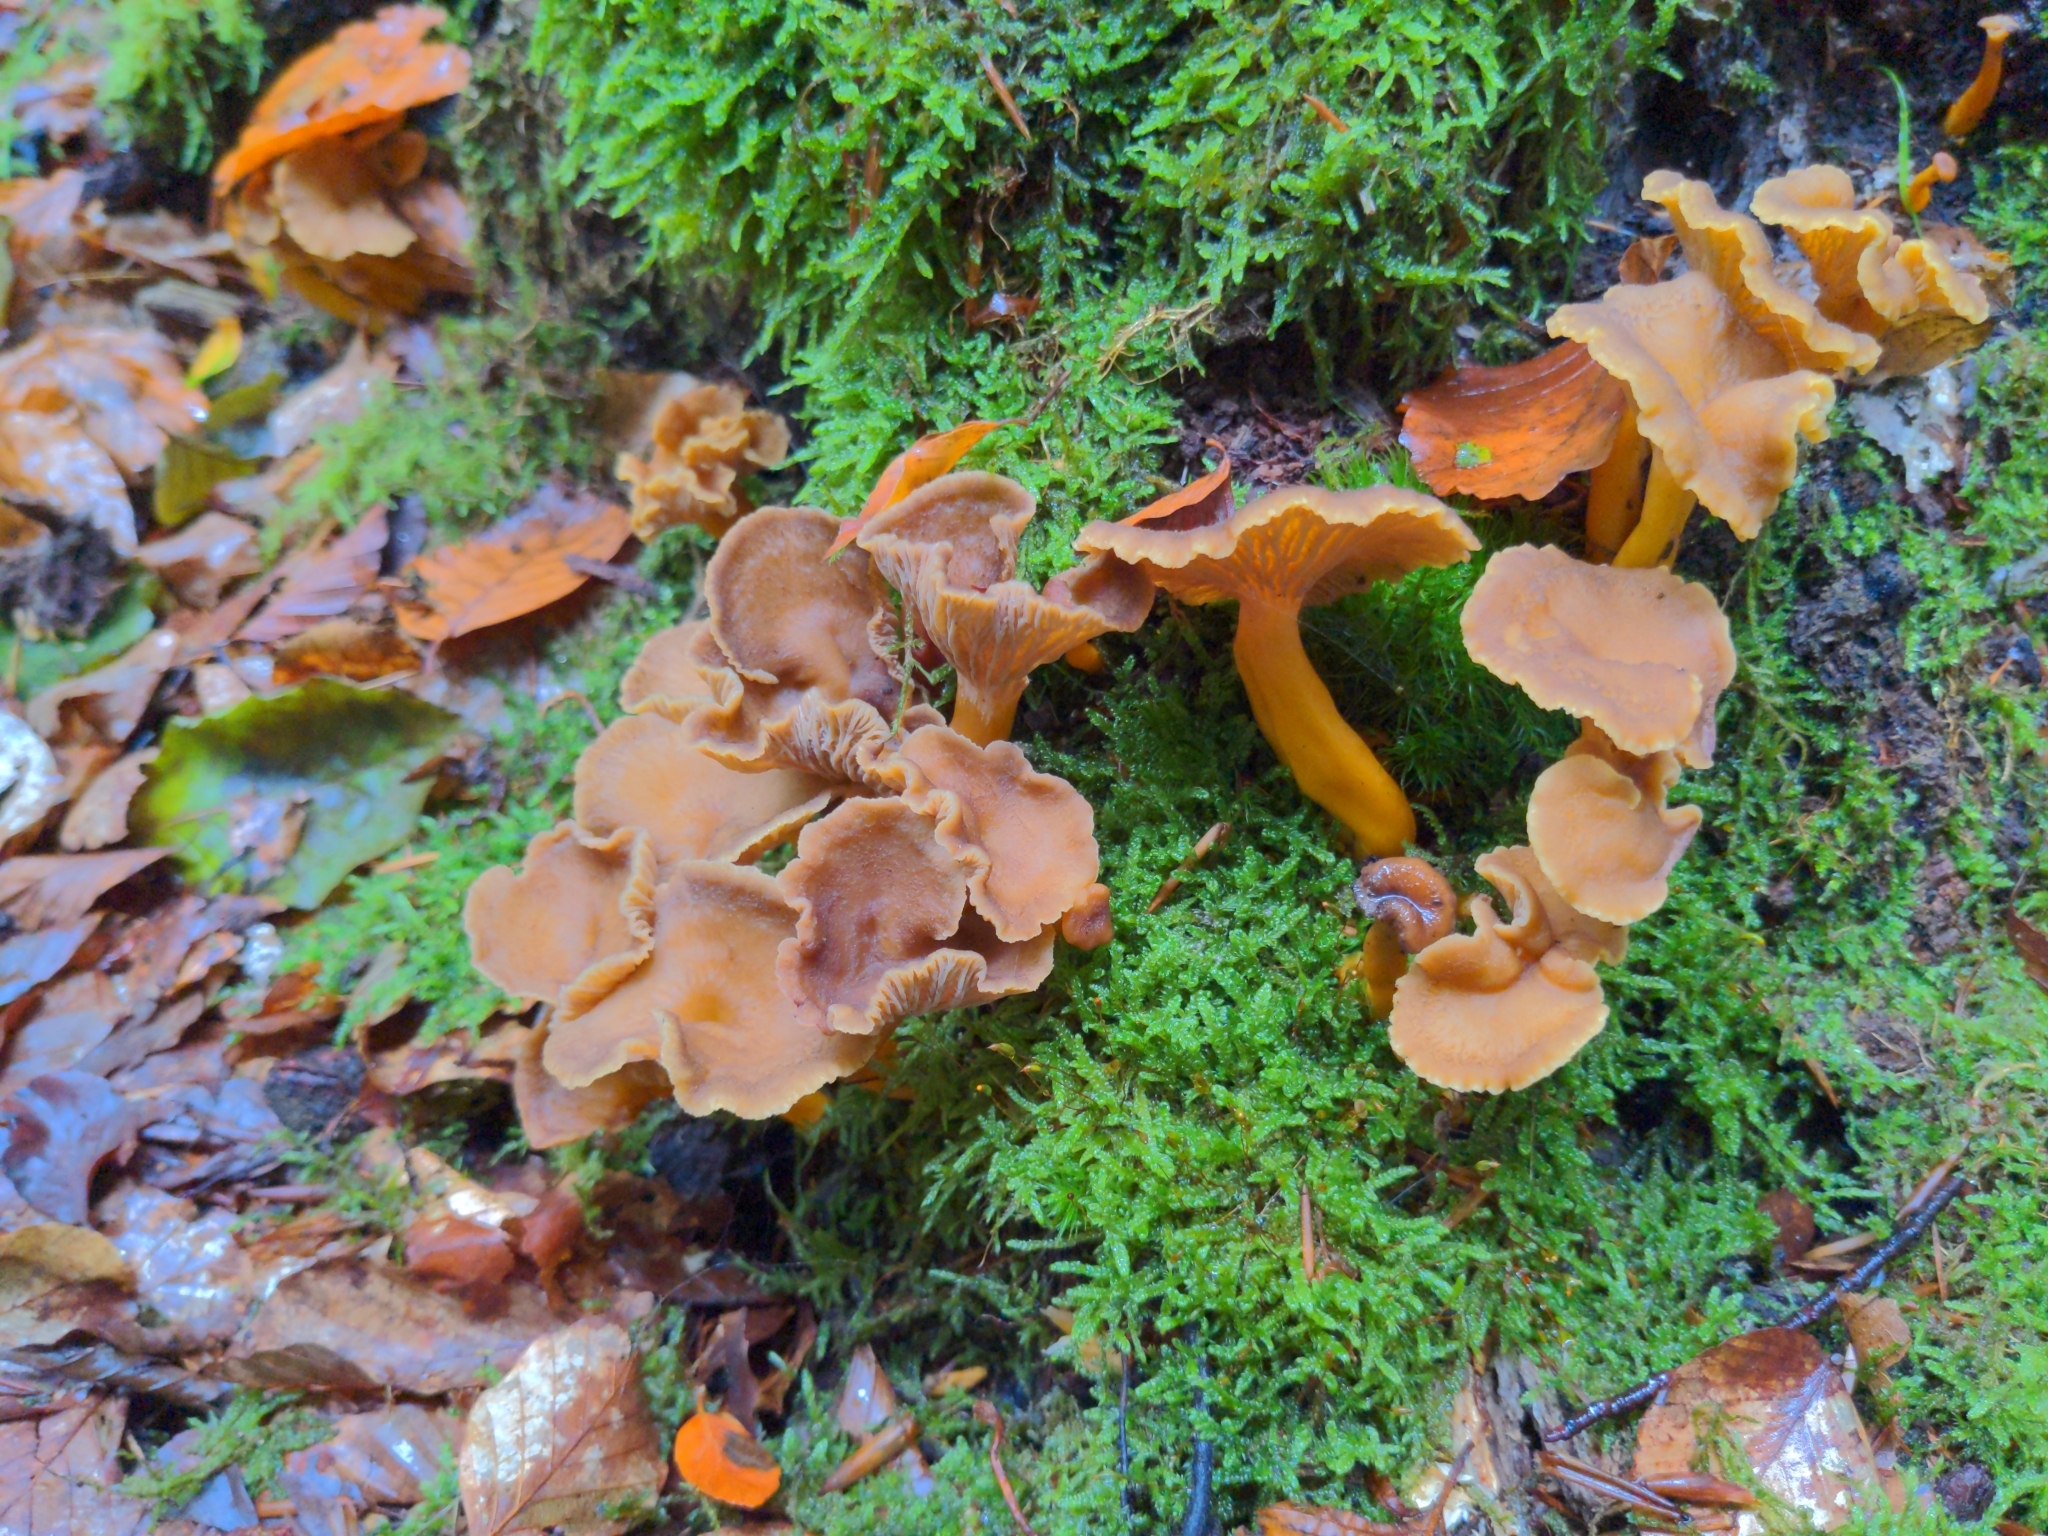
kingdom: Fungi
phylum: Basidiomycota
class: Agaricomycetes
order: Cantharellales
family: Hydnaceae
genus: Craterellus
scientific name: Craterellus tubaeformis
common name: Yellowfoot
